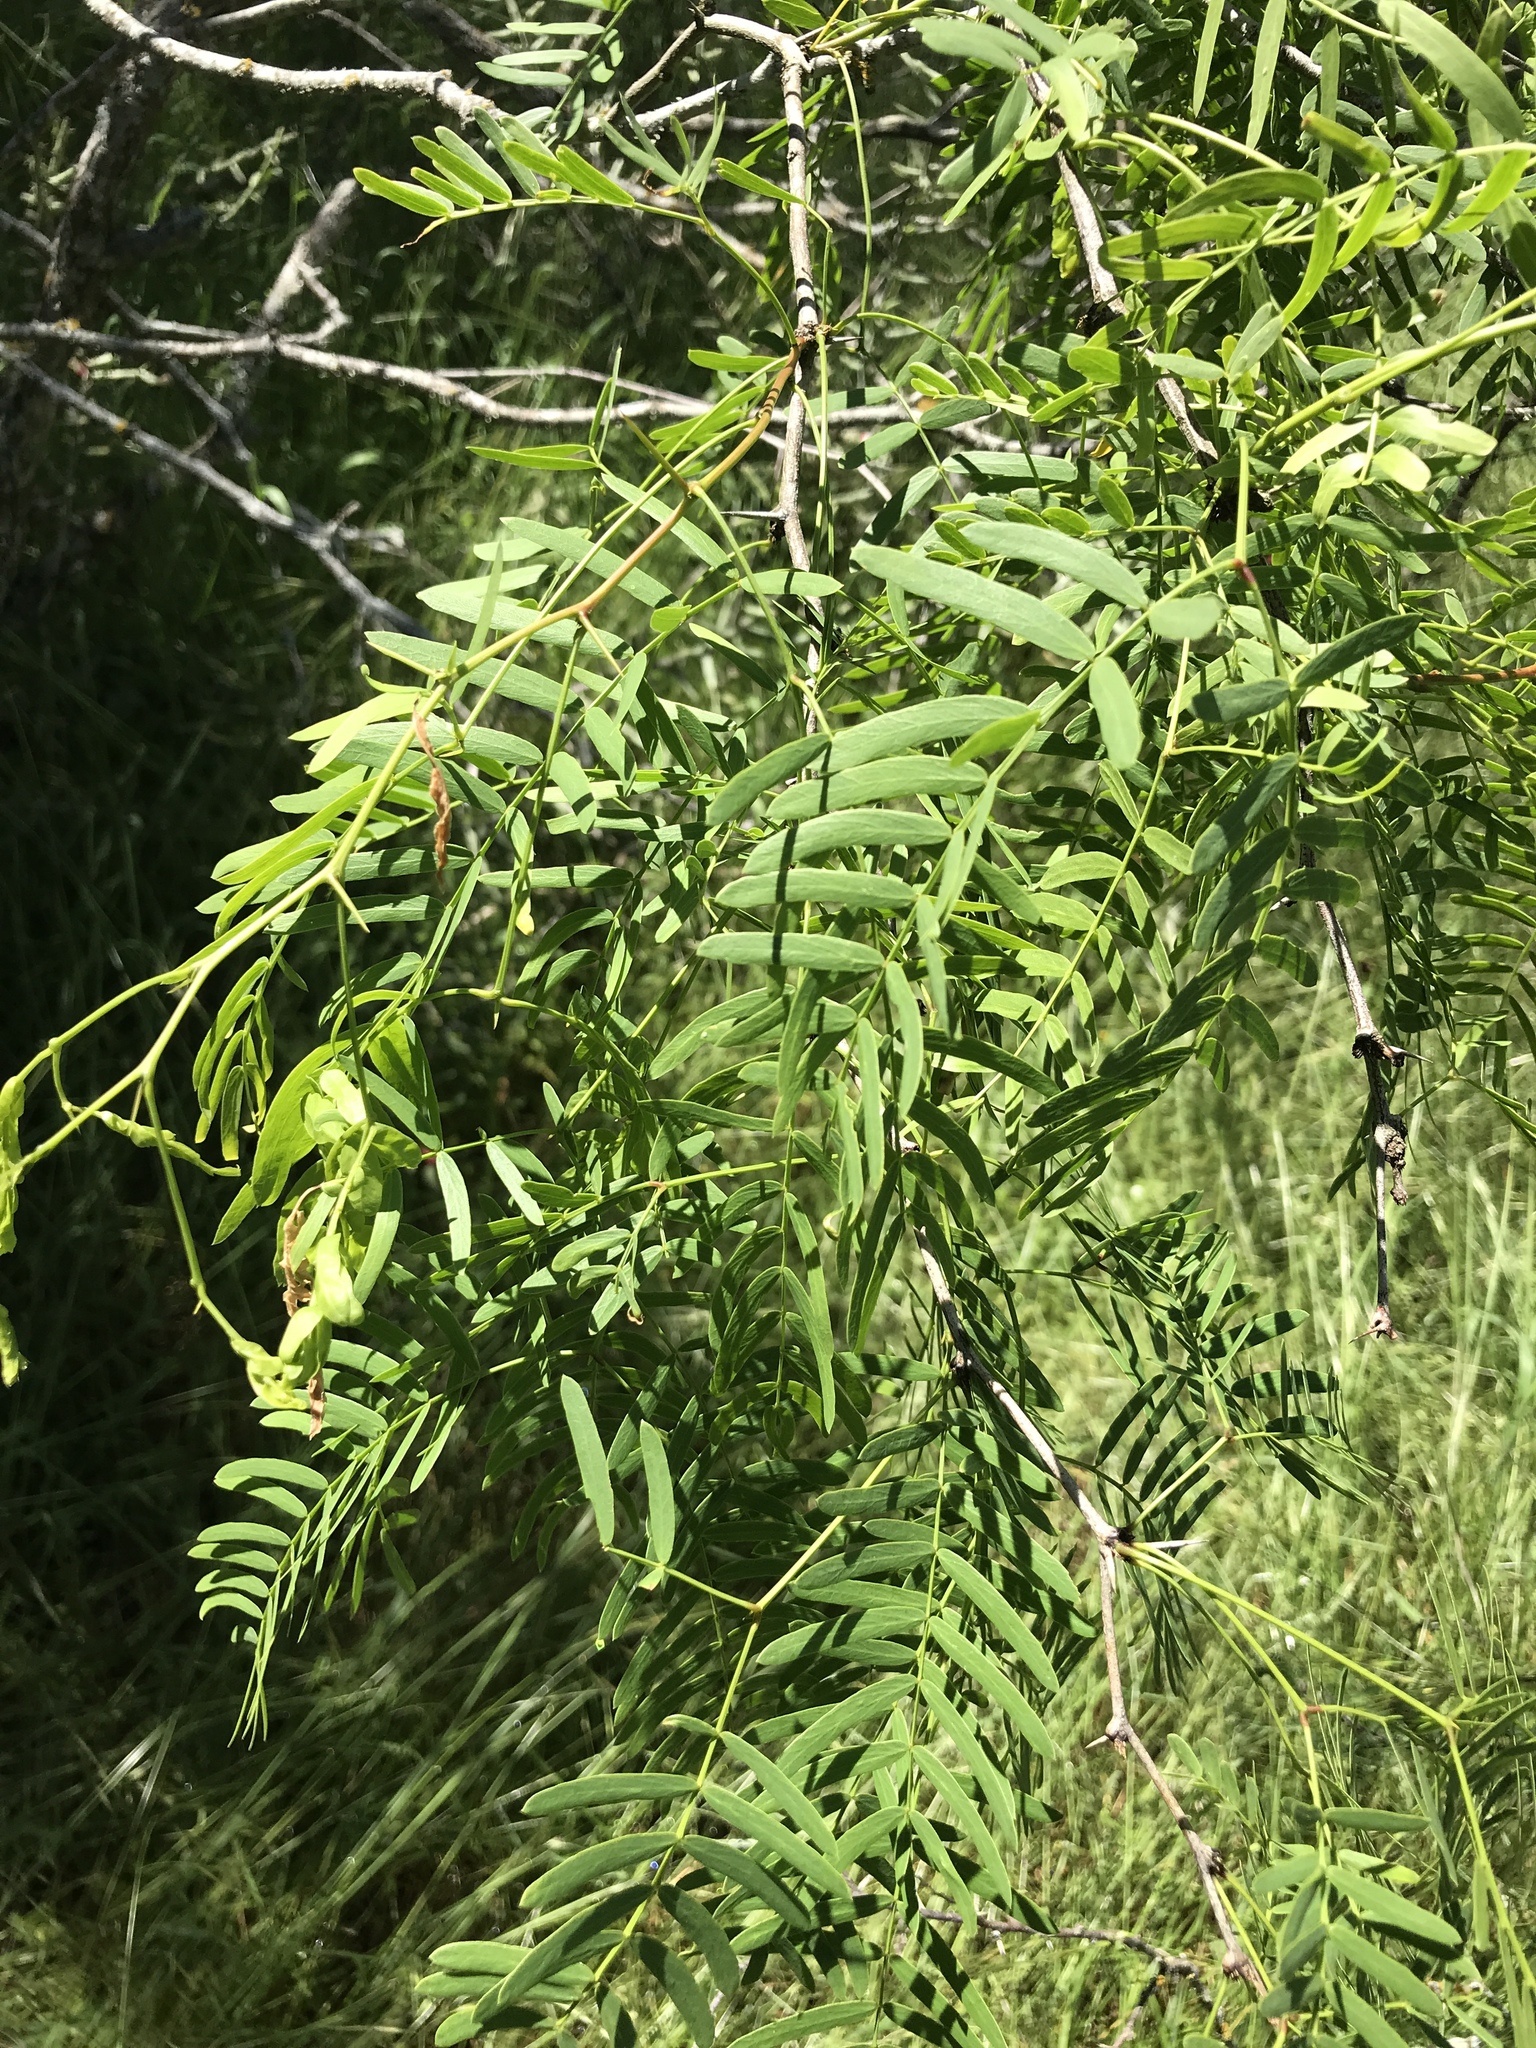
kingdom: Plantae
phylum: Tracheophyta
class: Magnoliopsida
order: Fabales
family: Fabaceae
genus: Prosopis
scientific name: Prosopis glandulosa
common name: Honey mesquite
